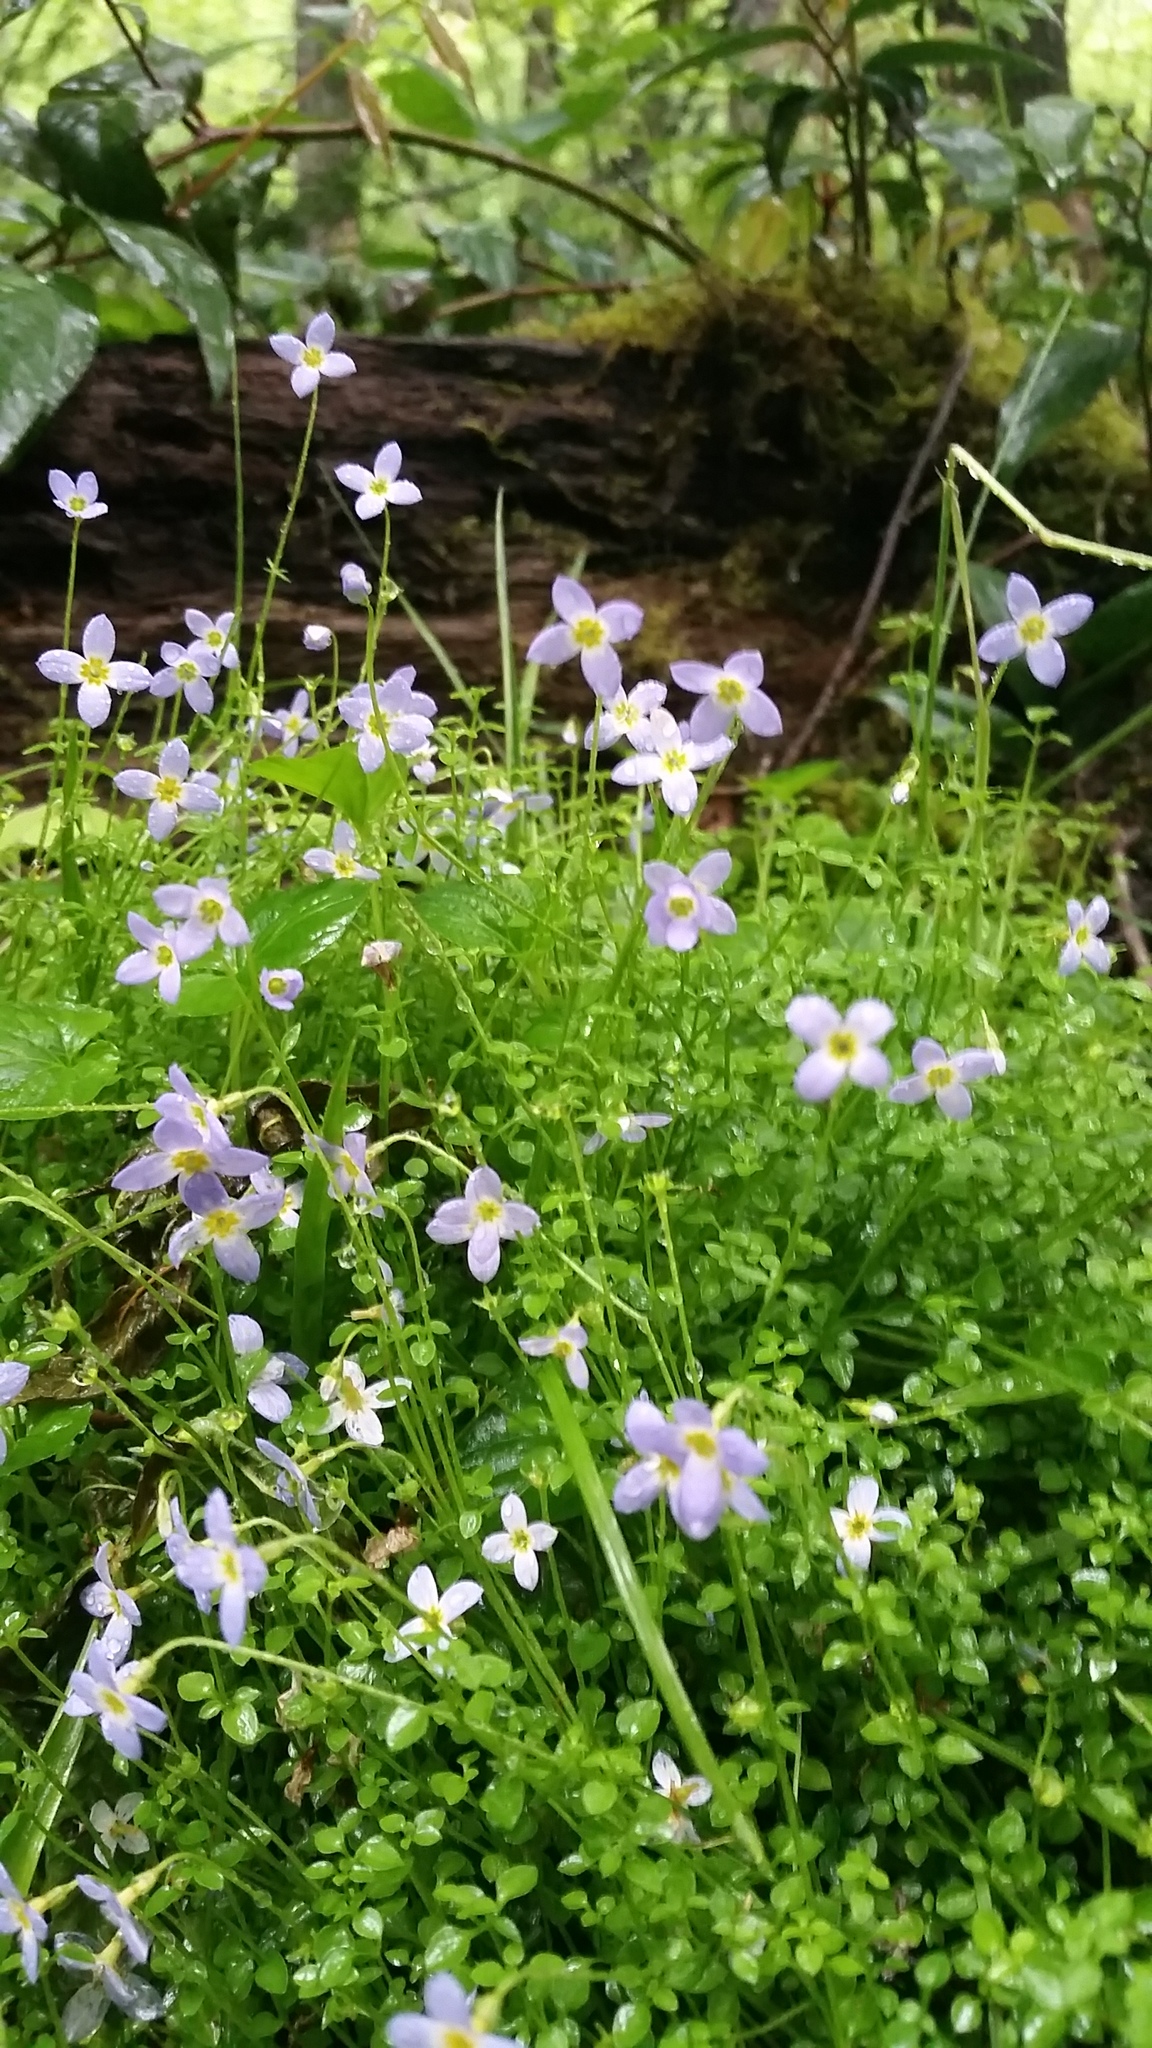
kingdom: Plantae
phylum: Tracheophyta
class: Magnoliopsida
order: Gentianales
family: Rubiaceae
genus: Houstonia
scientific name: Houstonia serpyllifolia
